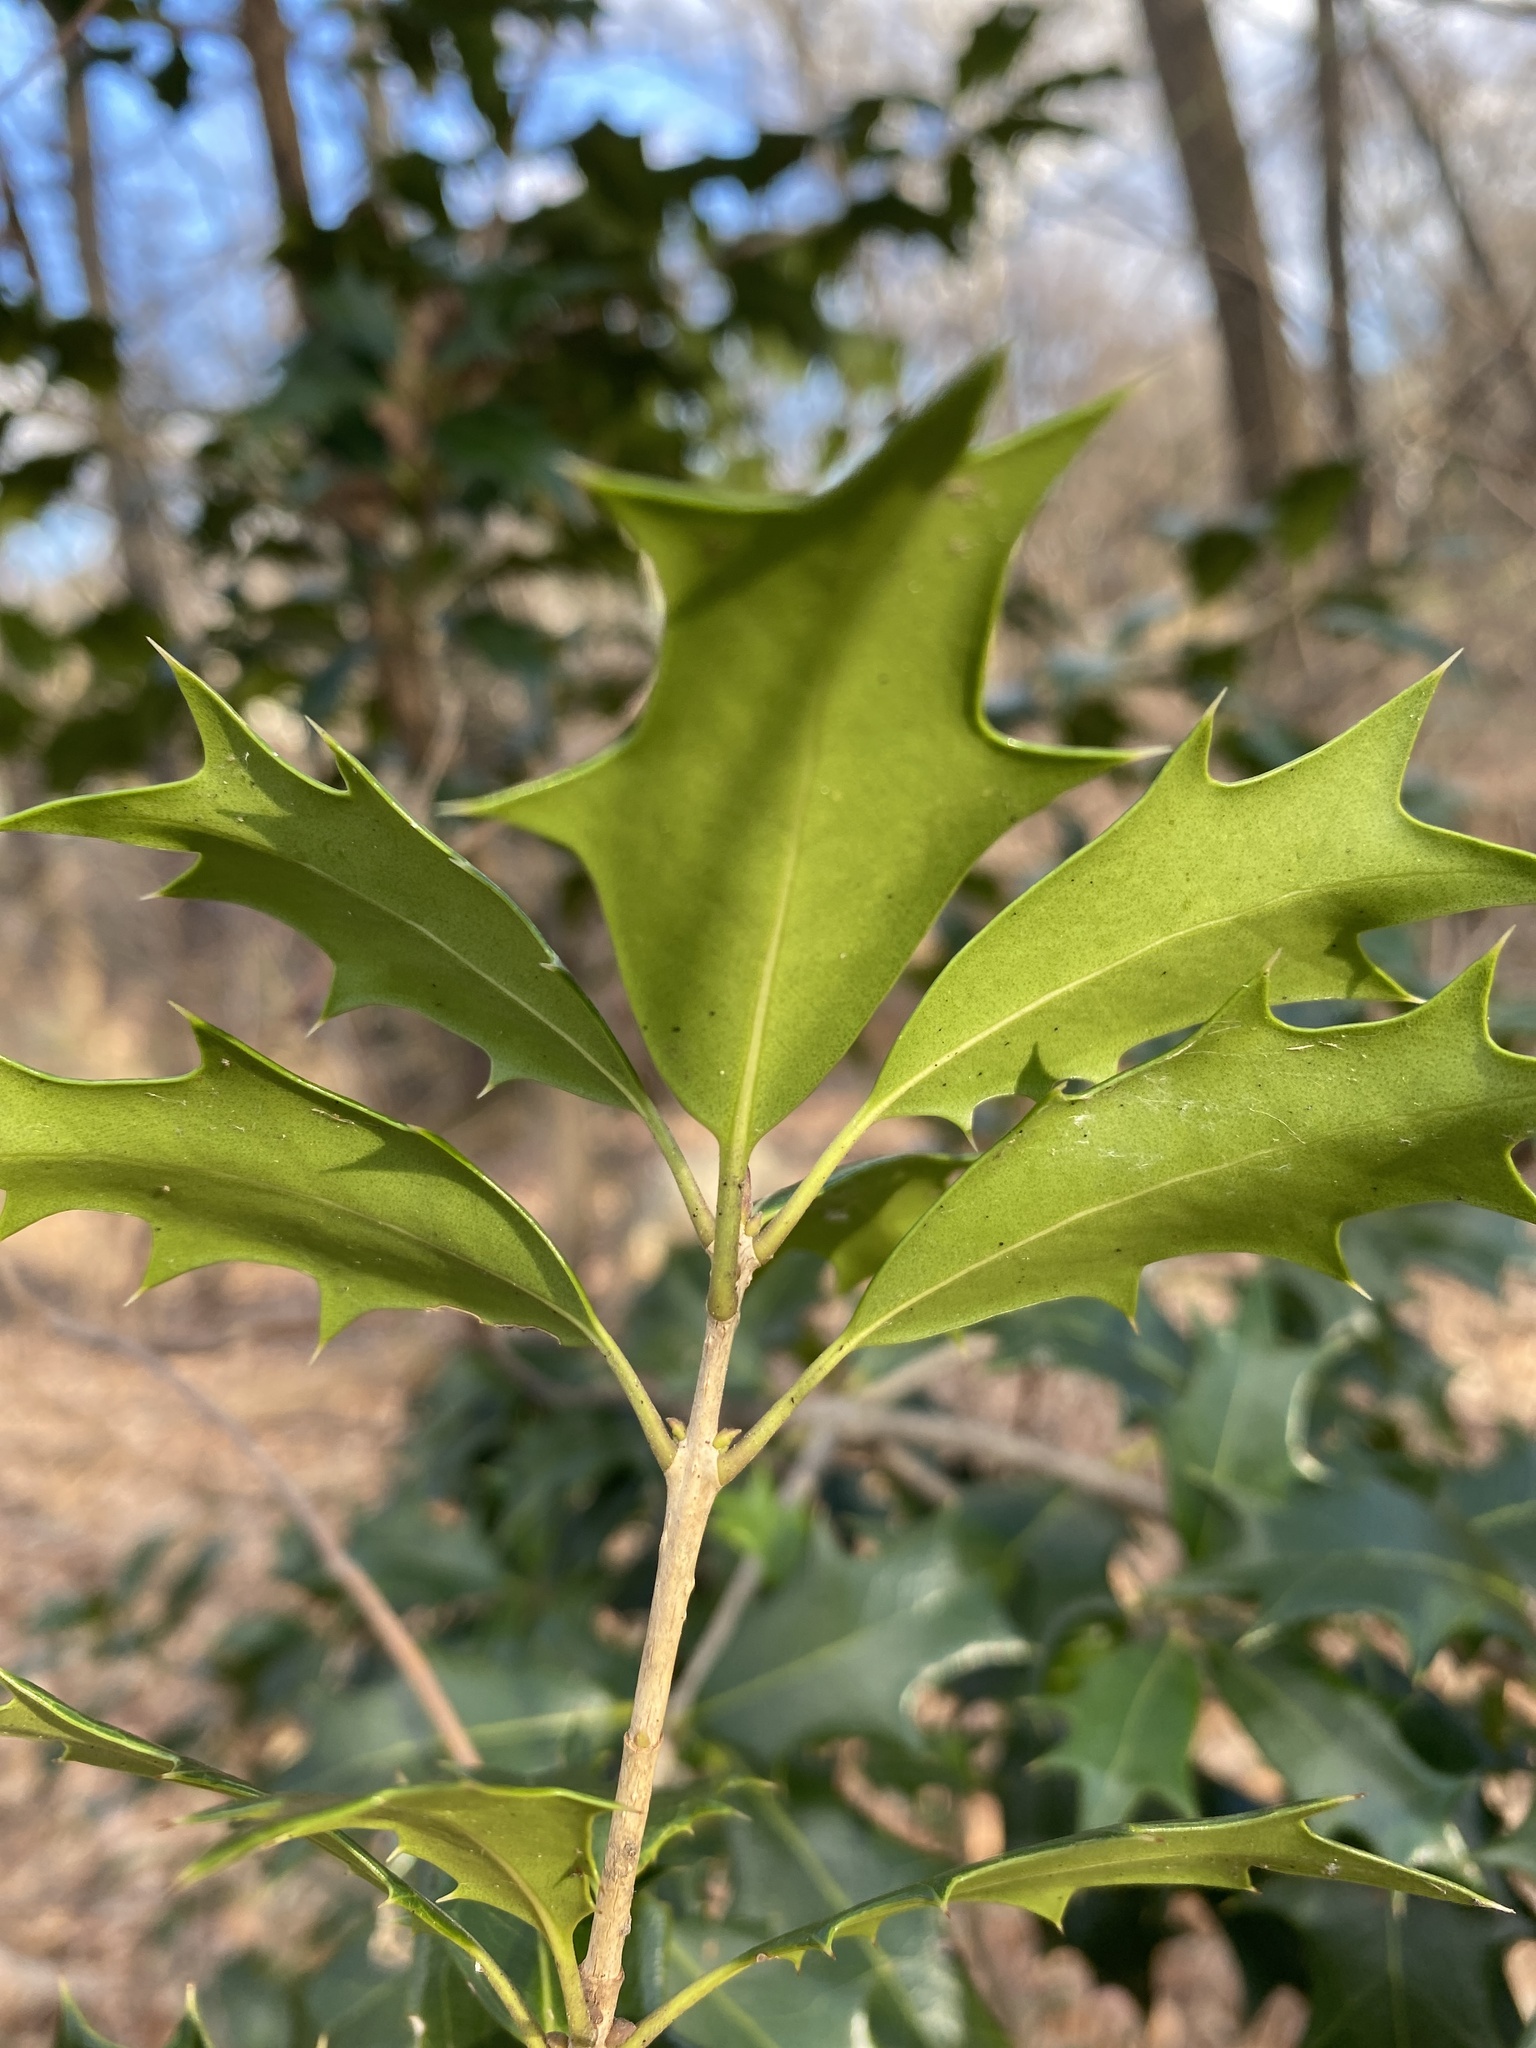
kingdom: Plantae
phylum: Tracheophyta
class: Magnoliopsida
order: Lamiales
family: Oleaceae
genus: Osmanthus
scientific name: Osmanthus heterophyllus
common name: Holly osmanthus
